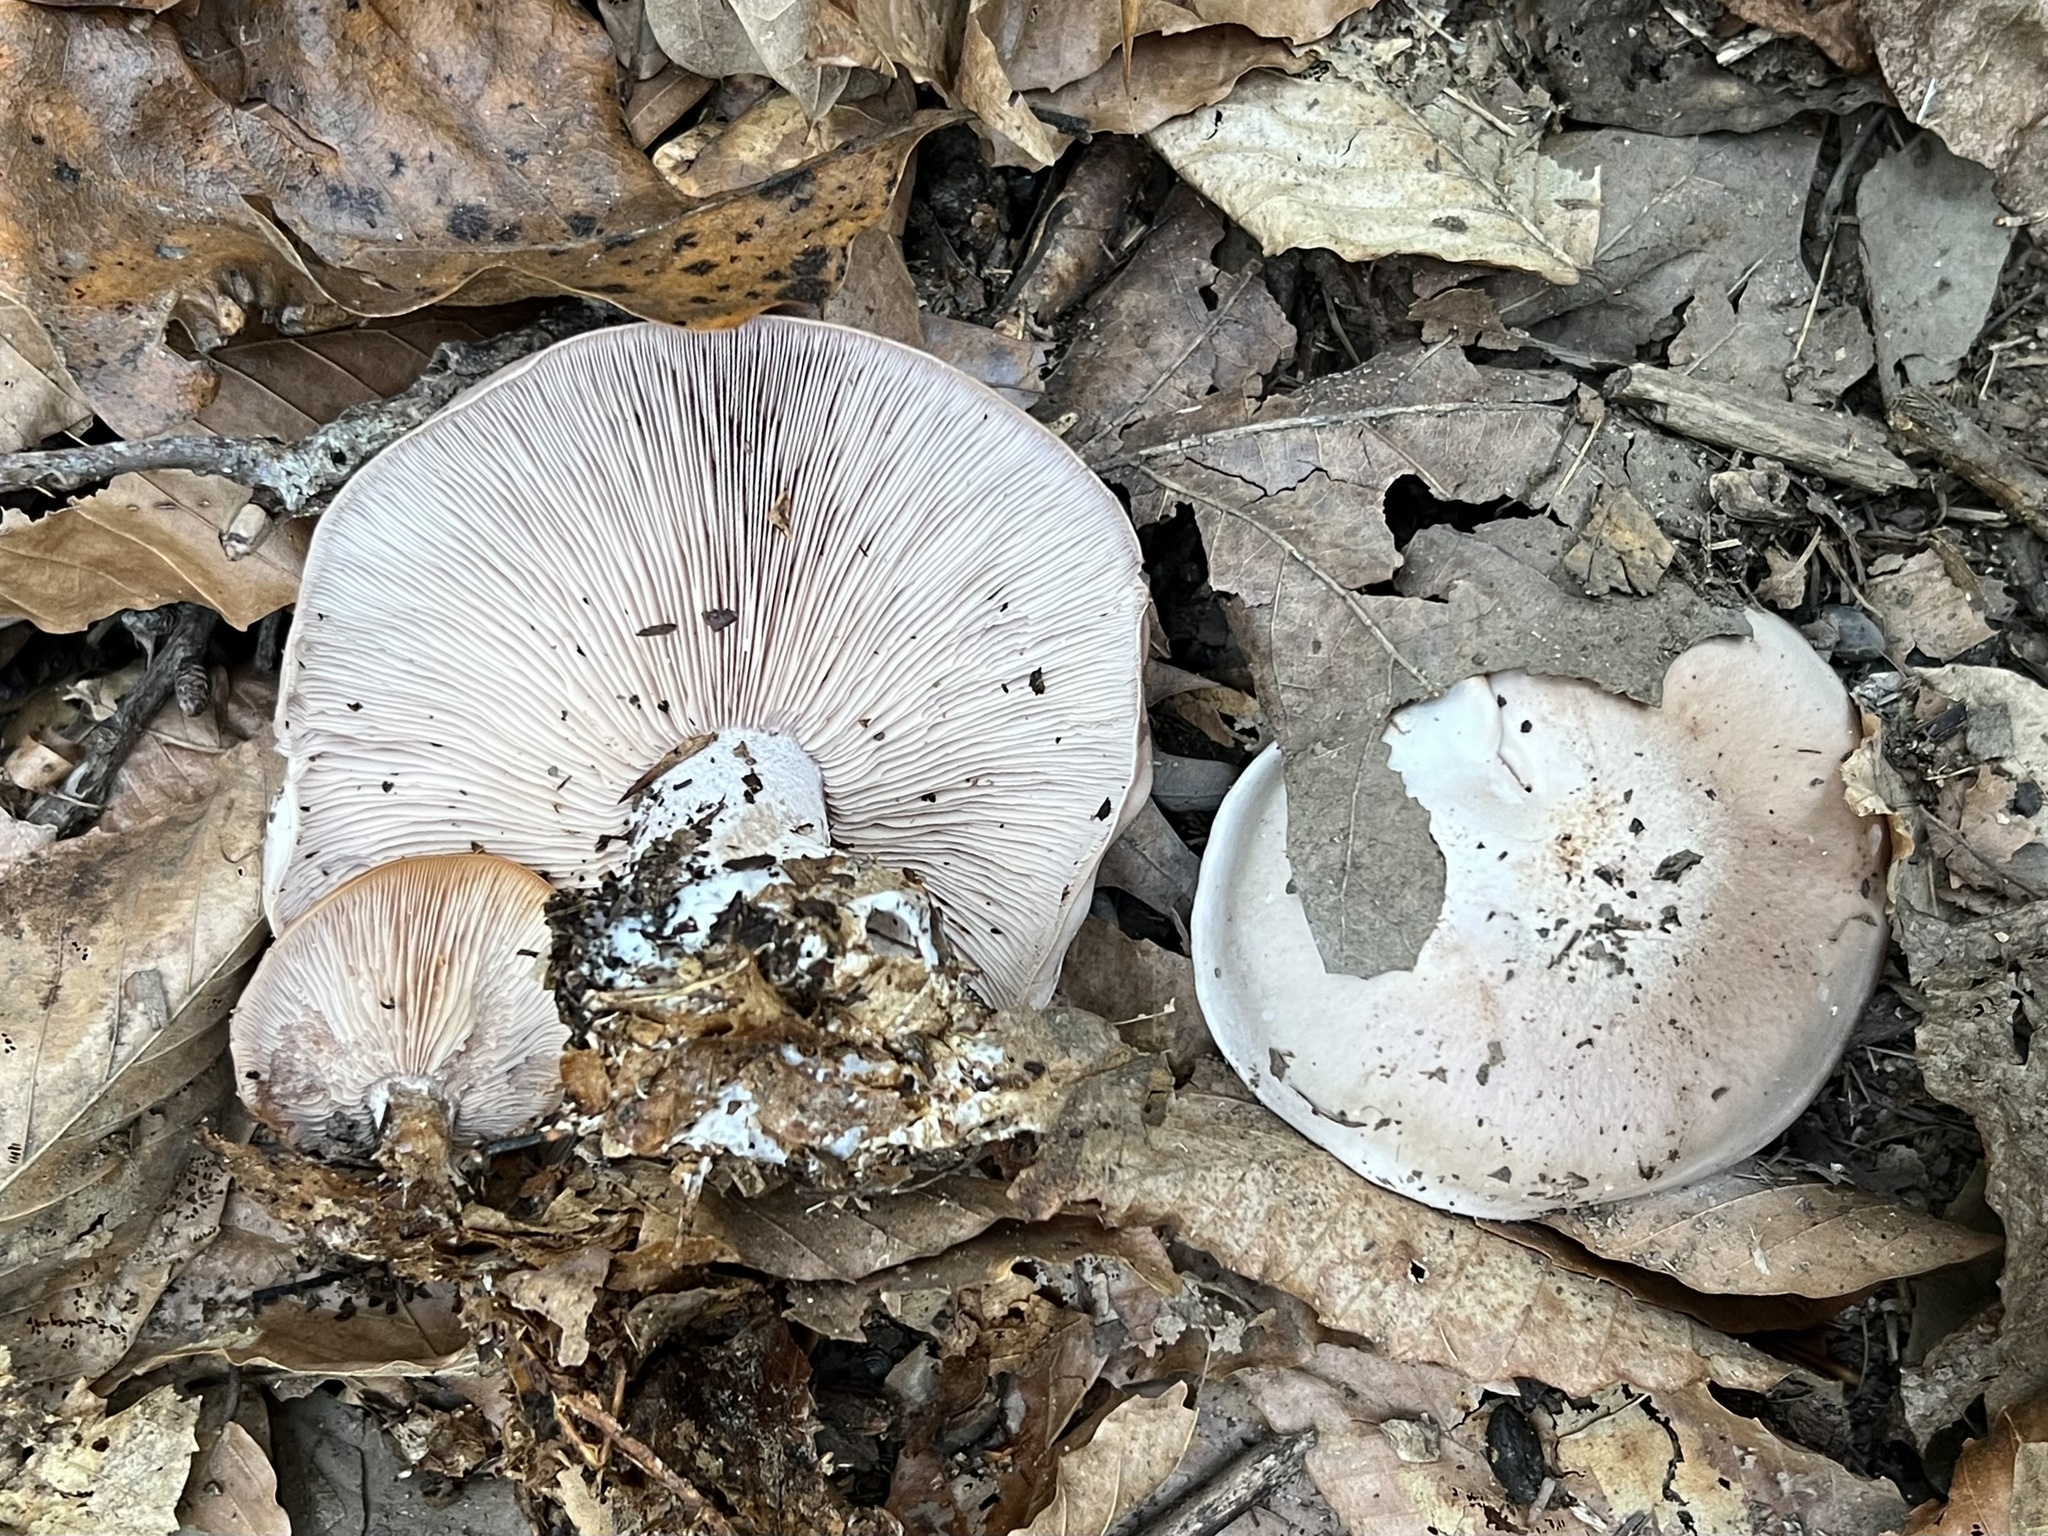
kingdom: Fungi
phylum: Basidiomycota
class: Agaricomycetes
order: Agaricales
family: Tricholomataceae
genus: Collybia
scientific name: Collybia
